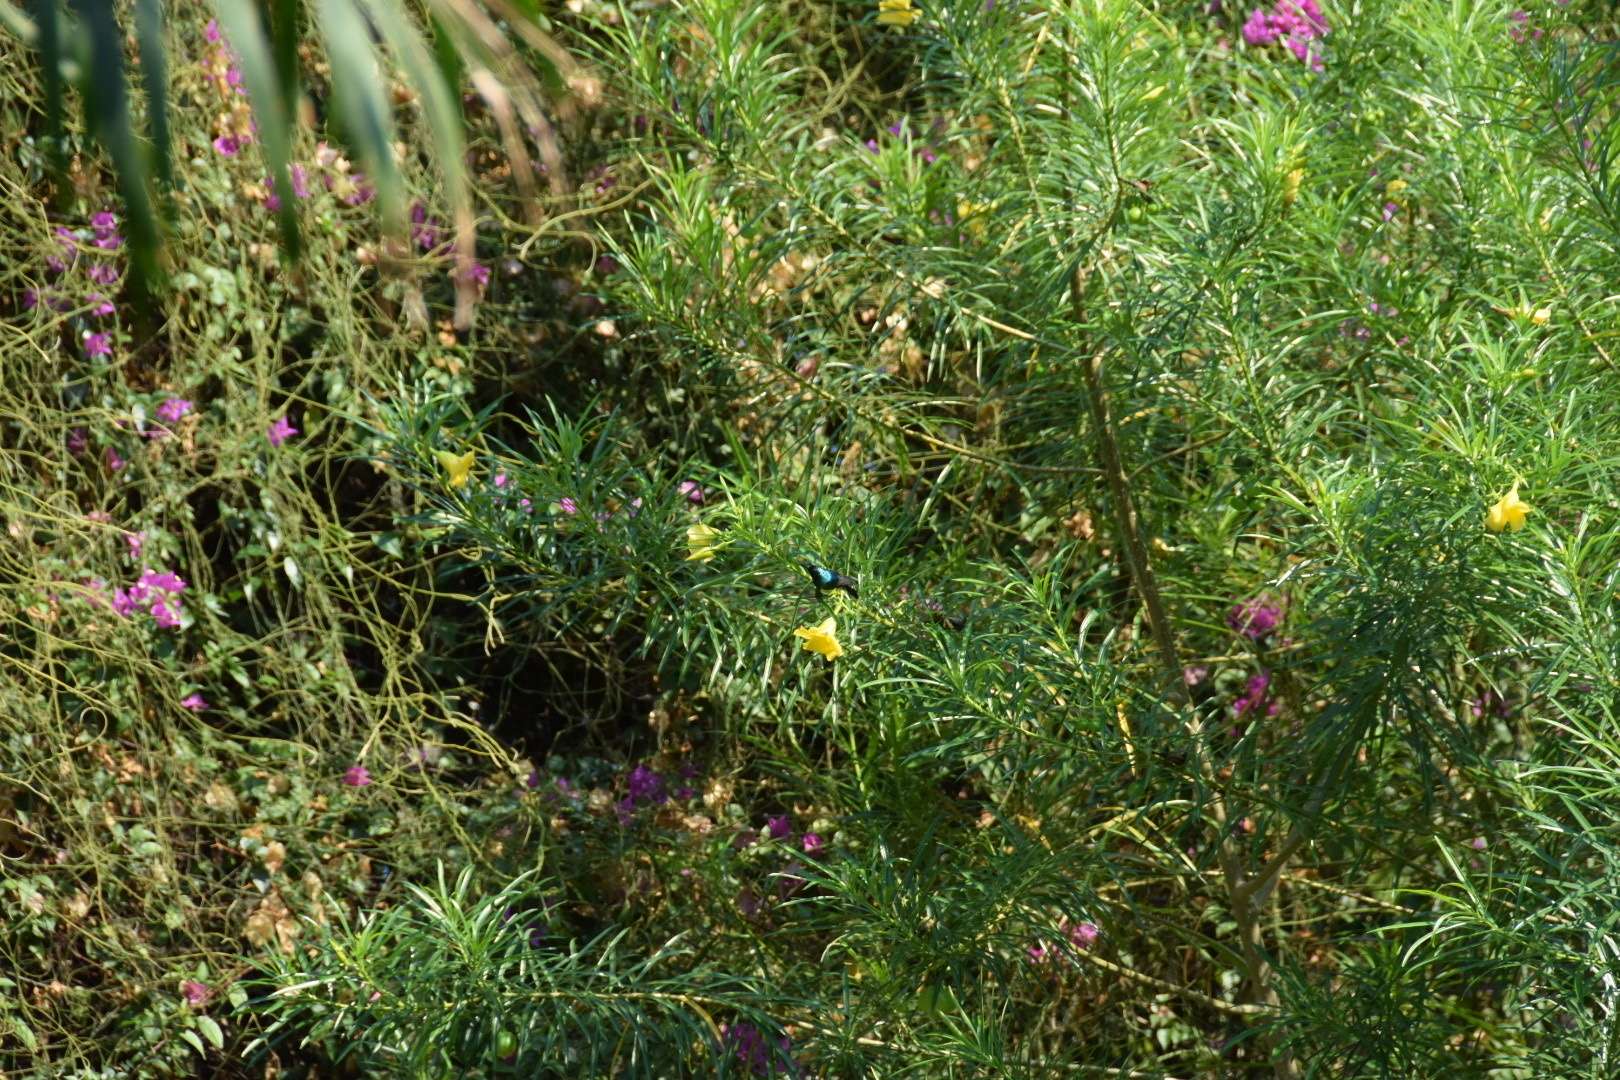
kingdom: Animalia
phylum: Chordata
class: Aves
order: Passeriformes
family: Nectariniidae
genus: Cinnyris
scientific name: Cinnyris venustus
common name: Variable sunbird
